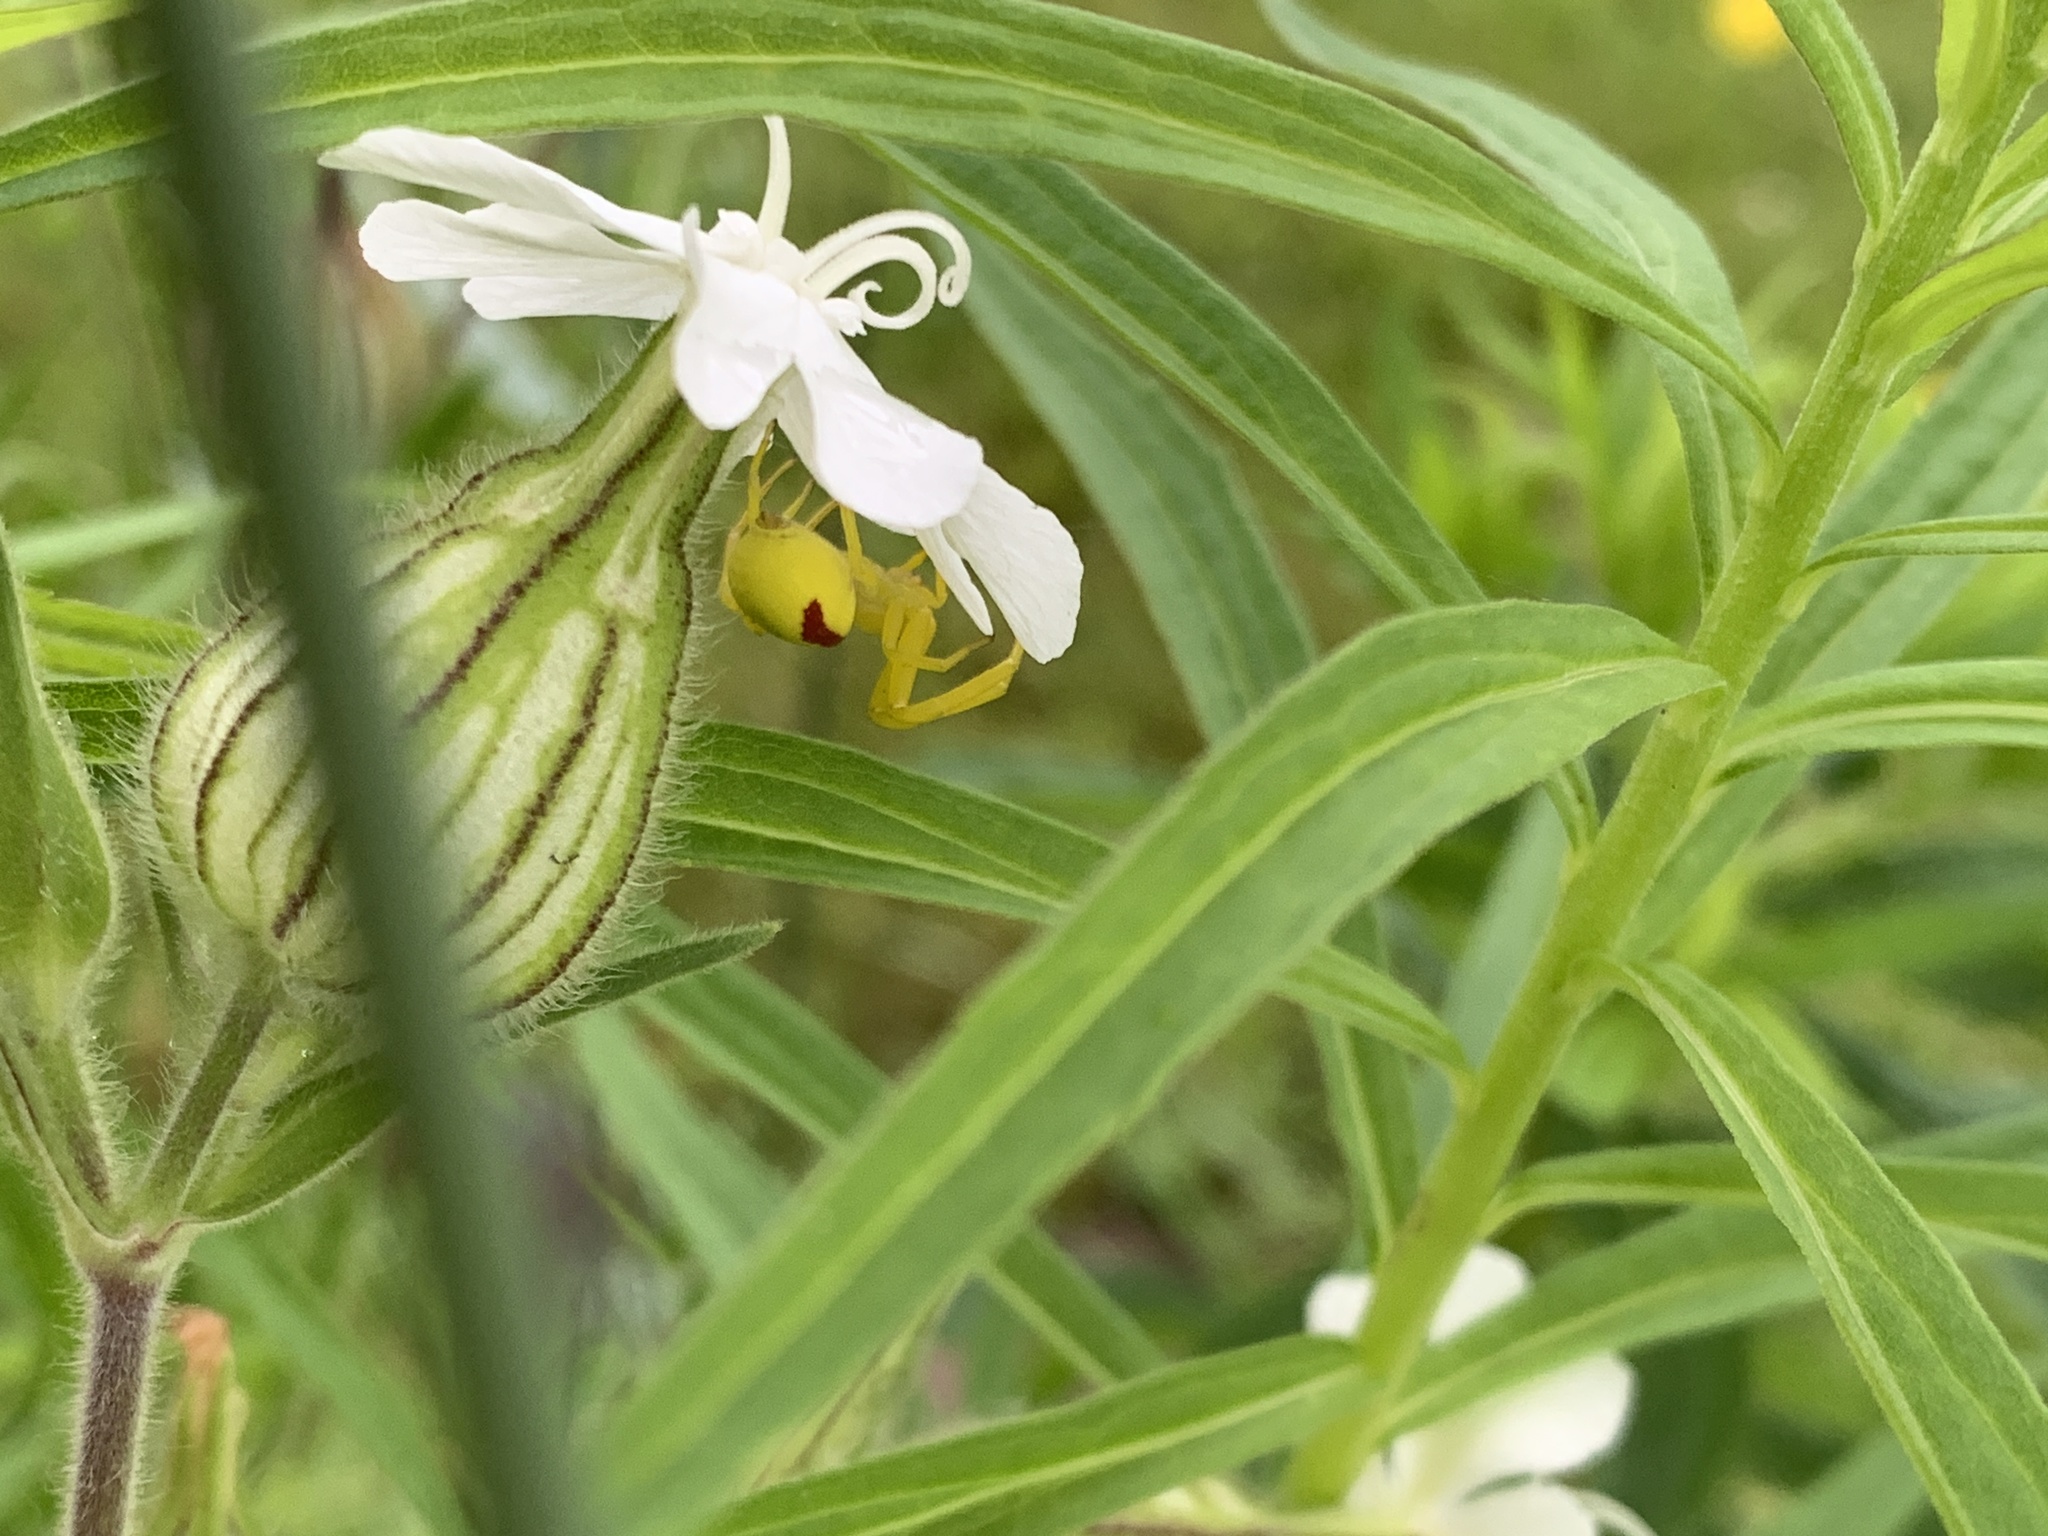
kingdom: Animalia
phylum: Arthropoda
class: Arachnida
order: Araneae
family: Thomisidae
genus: Misumena
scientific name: Misumena vatia
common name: Goldenrod crab spider
